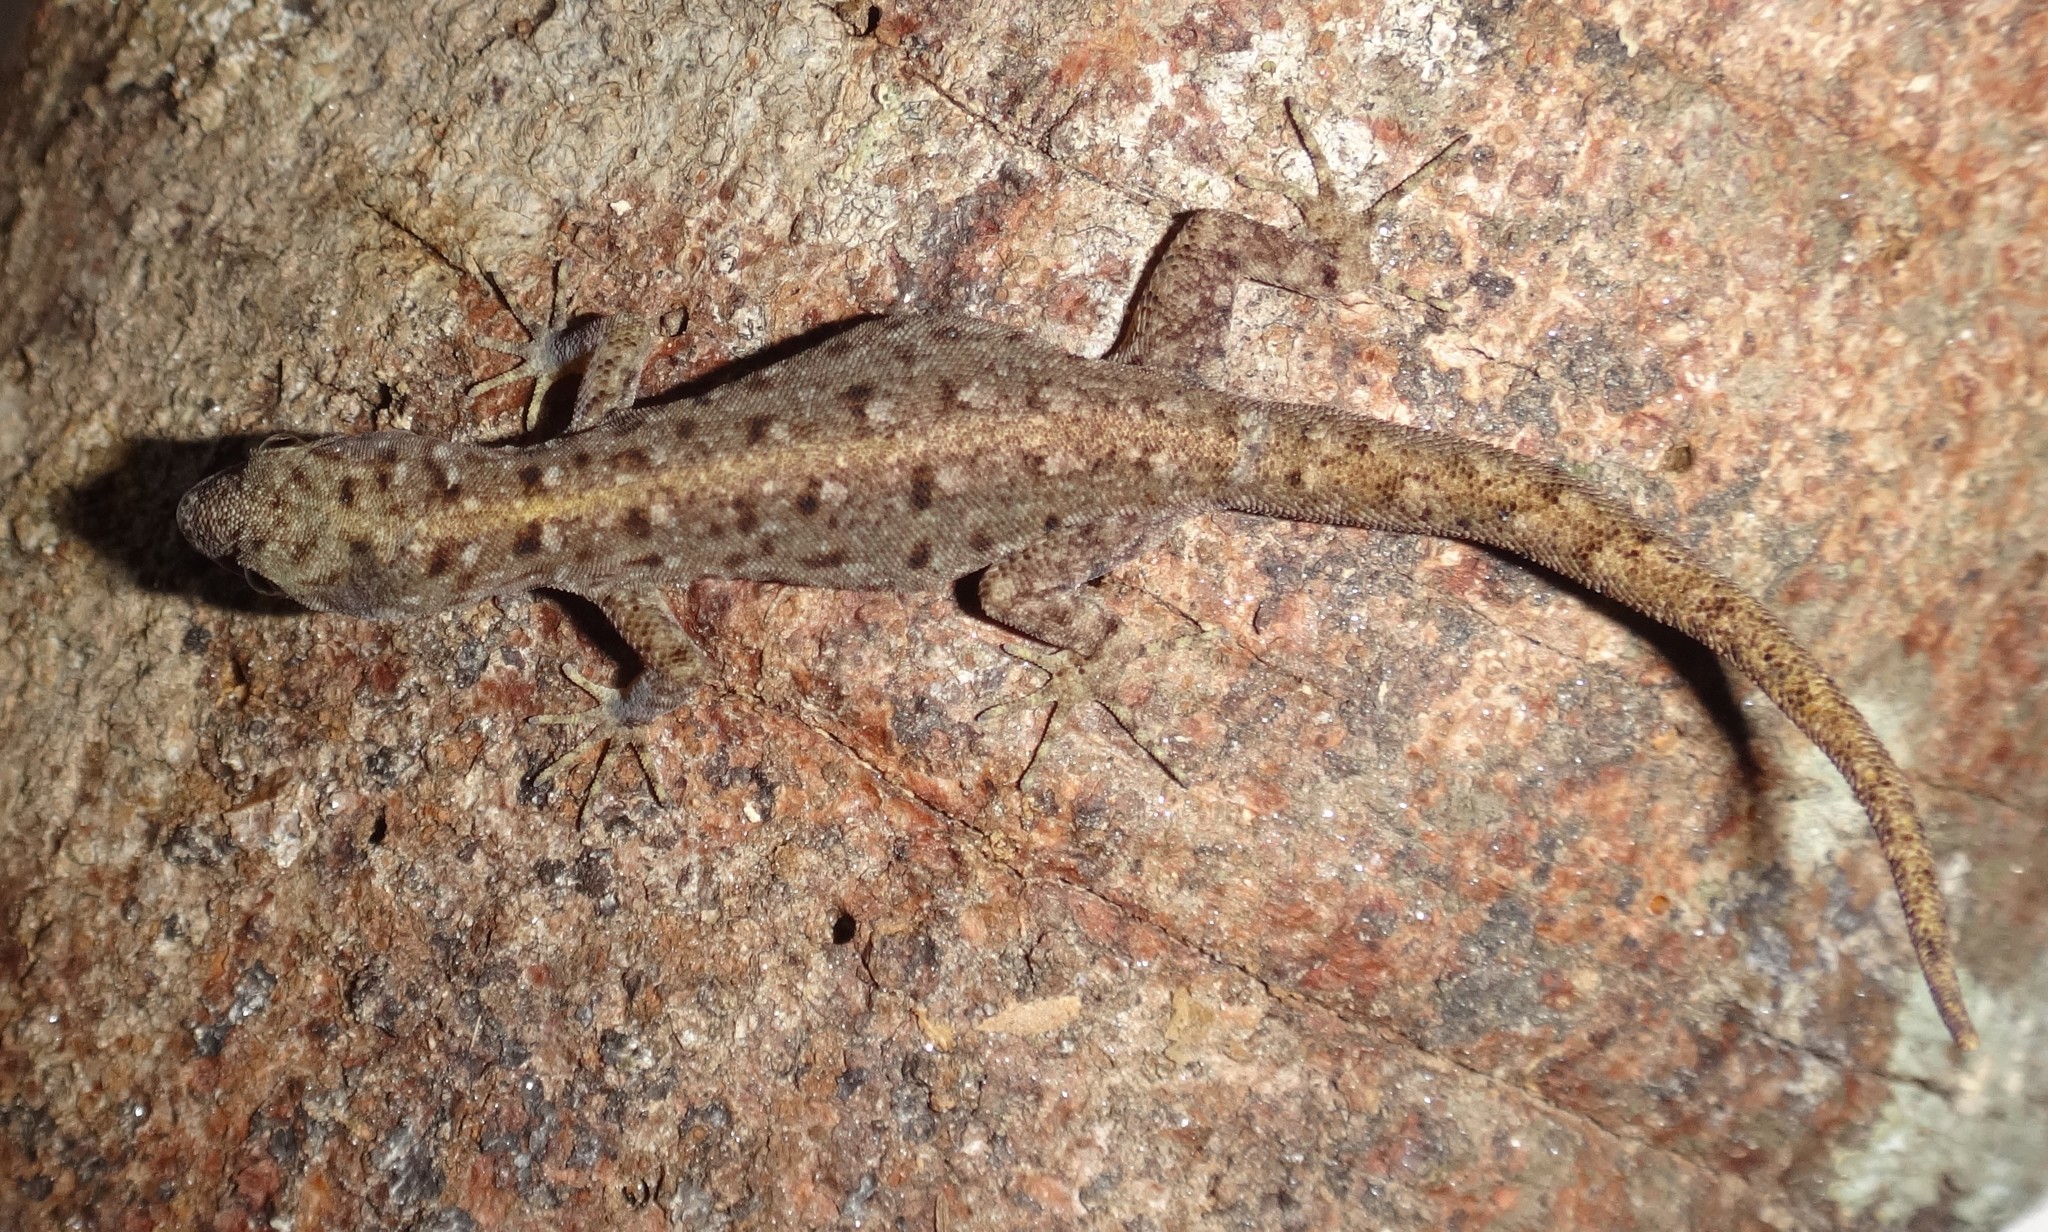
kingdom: Animalia
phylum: Chordata
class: Squamata
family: Sphaerodactylidae
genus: Gonatodes
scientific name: Gonatodes vittatus
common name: Wiegmann's striped gecko
